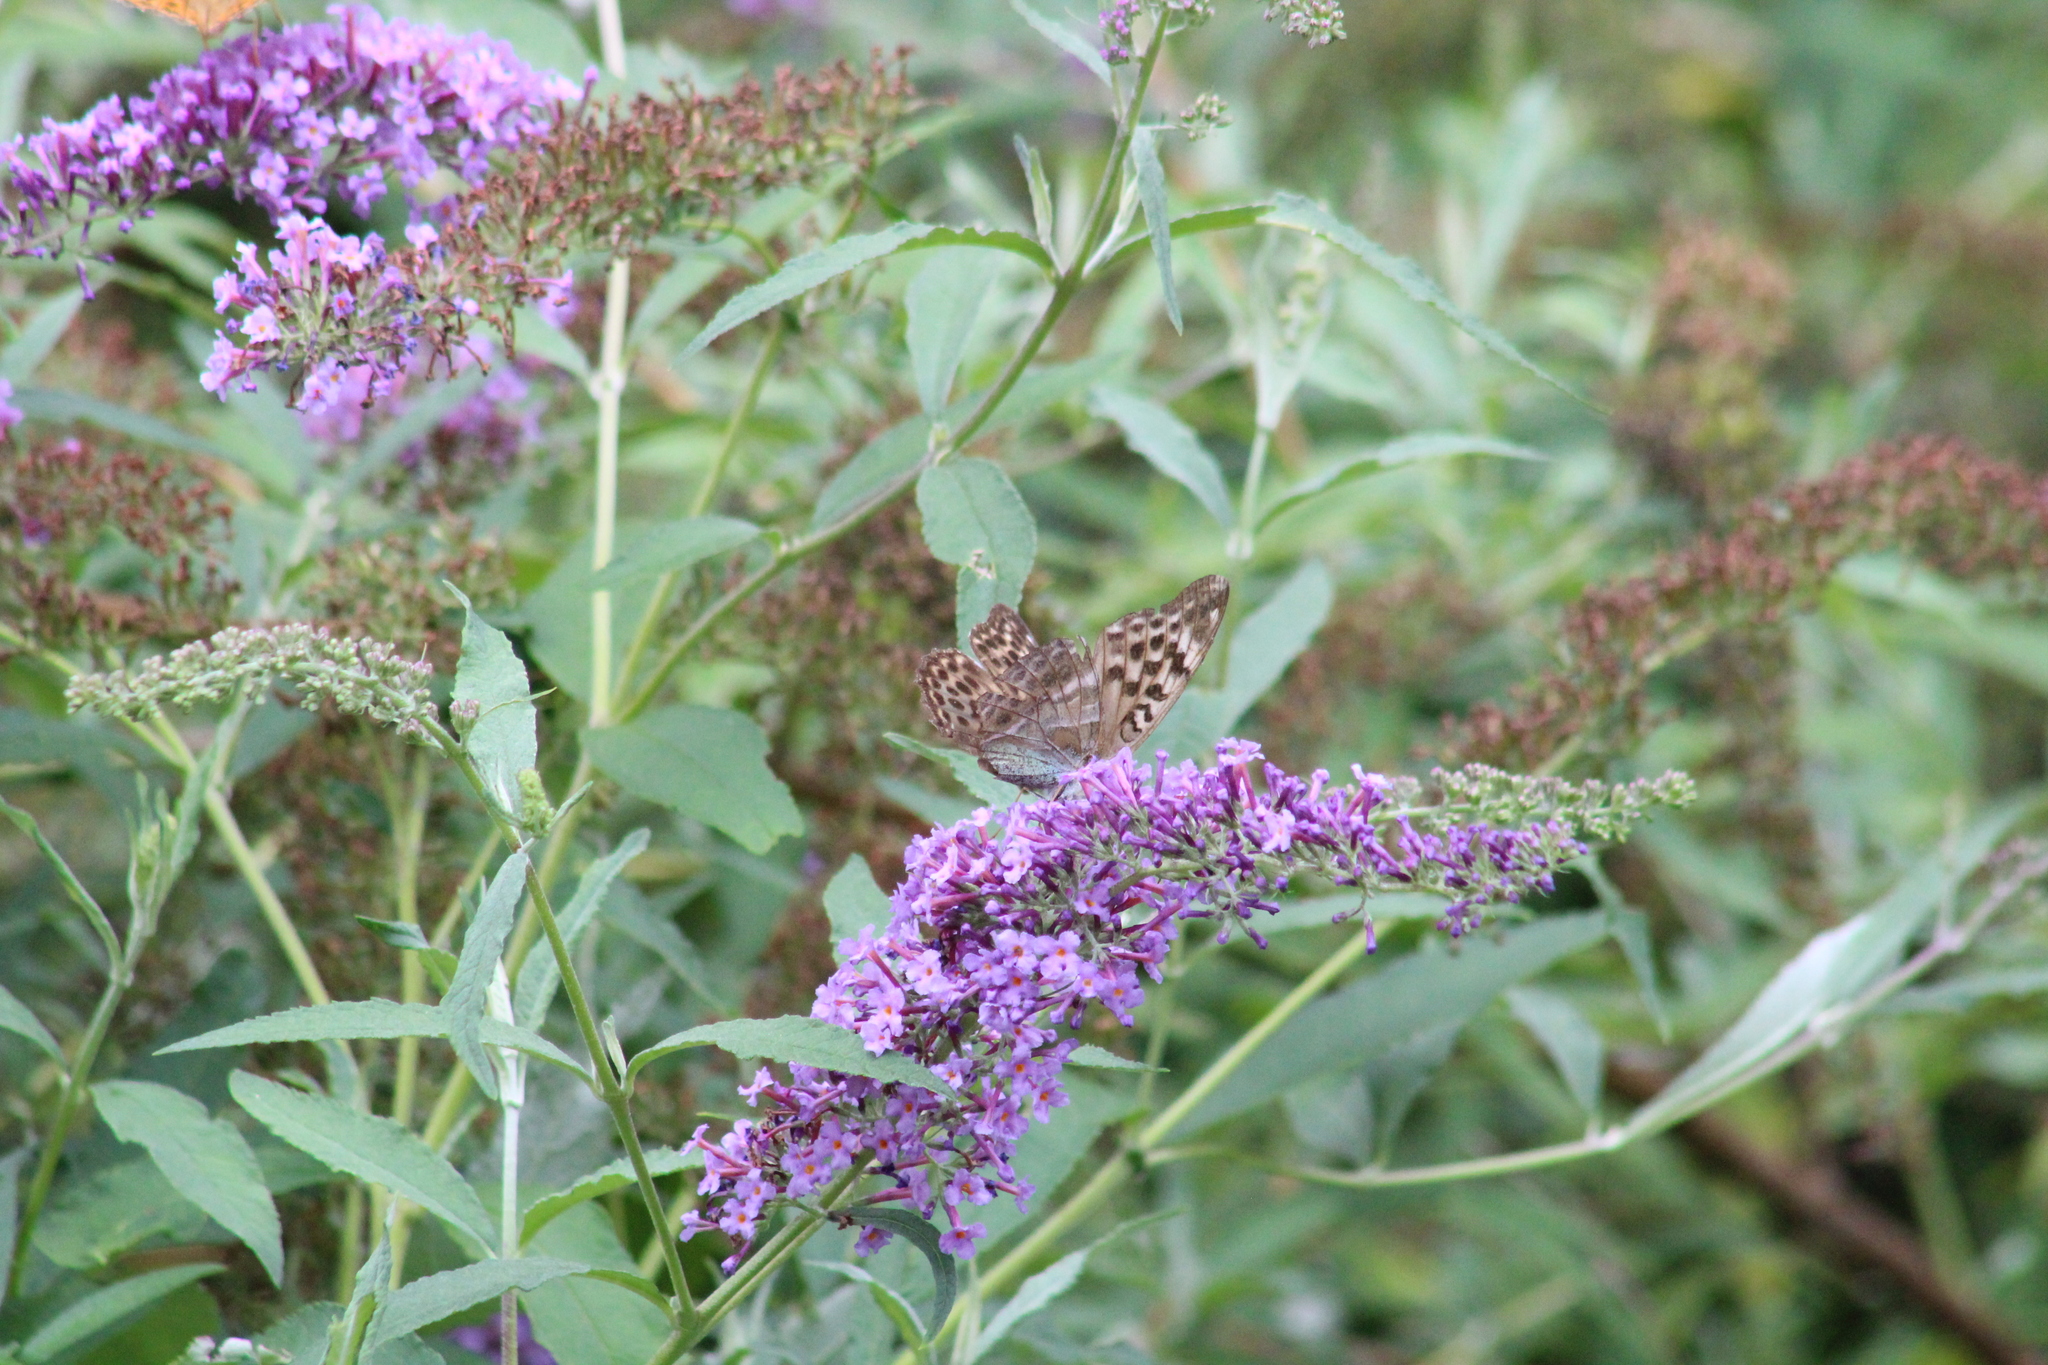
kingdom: Animalia
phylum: Arthropoda
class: Insecta
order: Lepidoptera
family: Nymphalidae
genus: Argynnis
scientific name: Argynnis paphia
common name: Silver-washed fritillary
